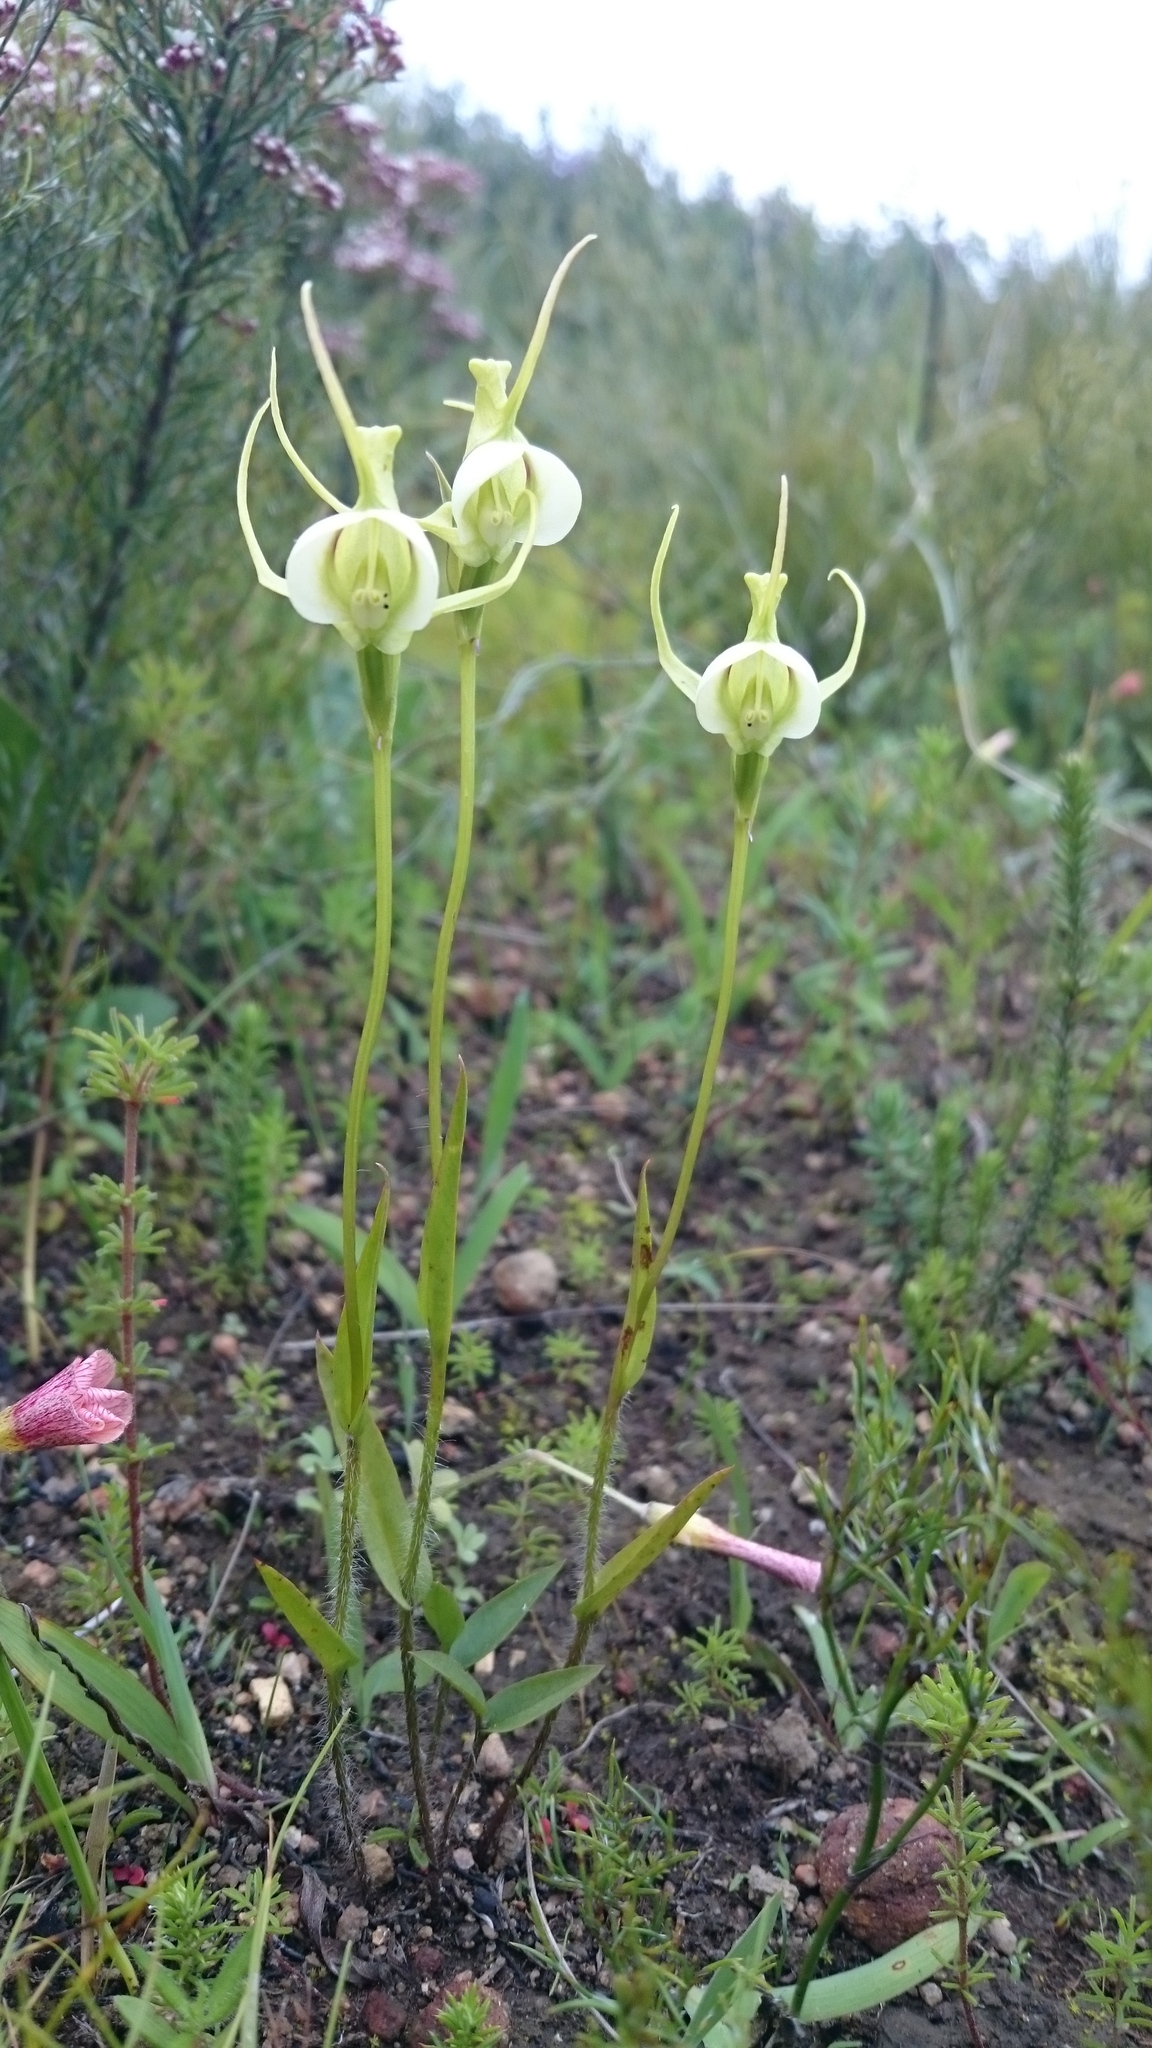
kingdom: Plantae
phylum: Tracheophyta
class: Liliopsida
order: Asparagales
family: Orchidaceae
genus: Disperis
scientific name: Disperis capensis
